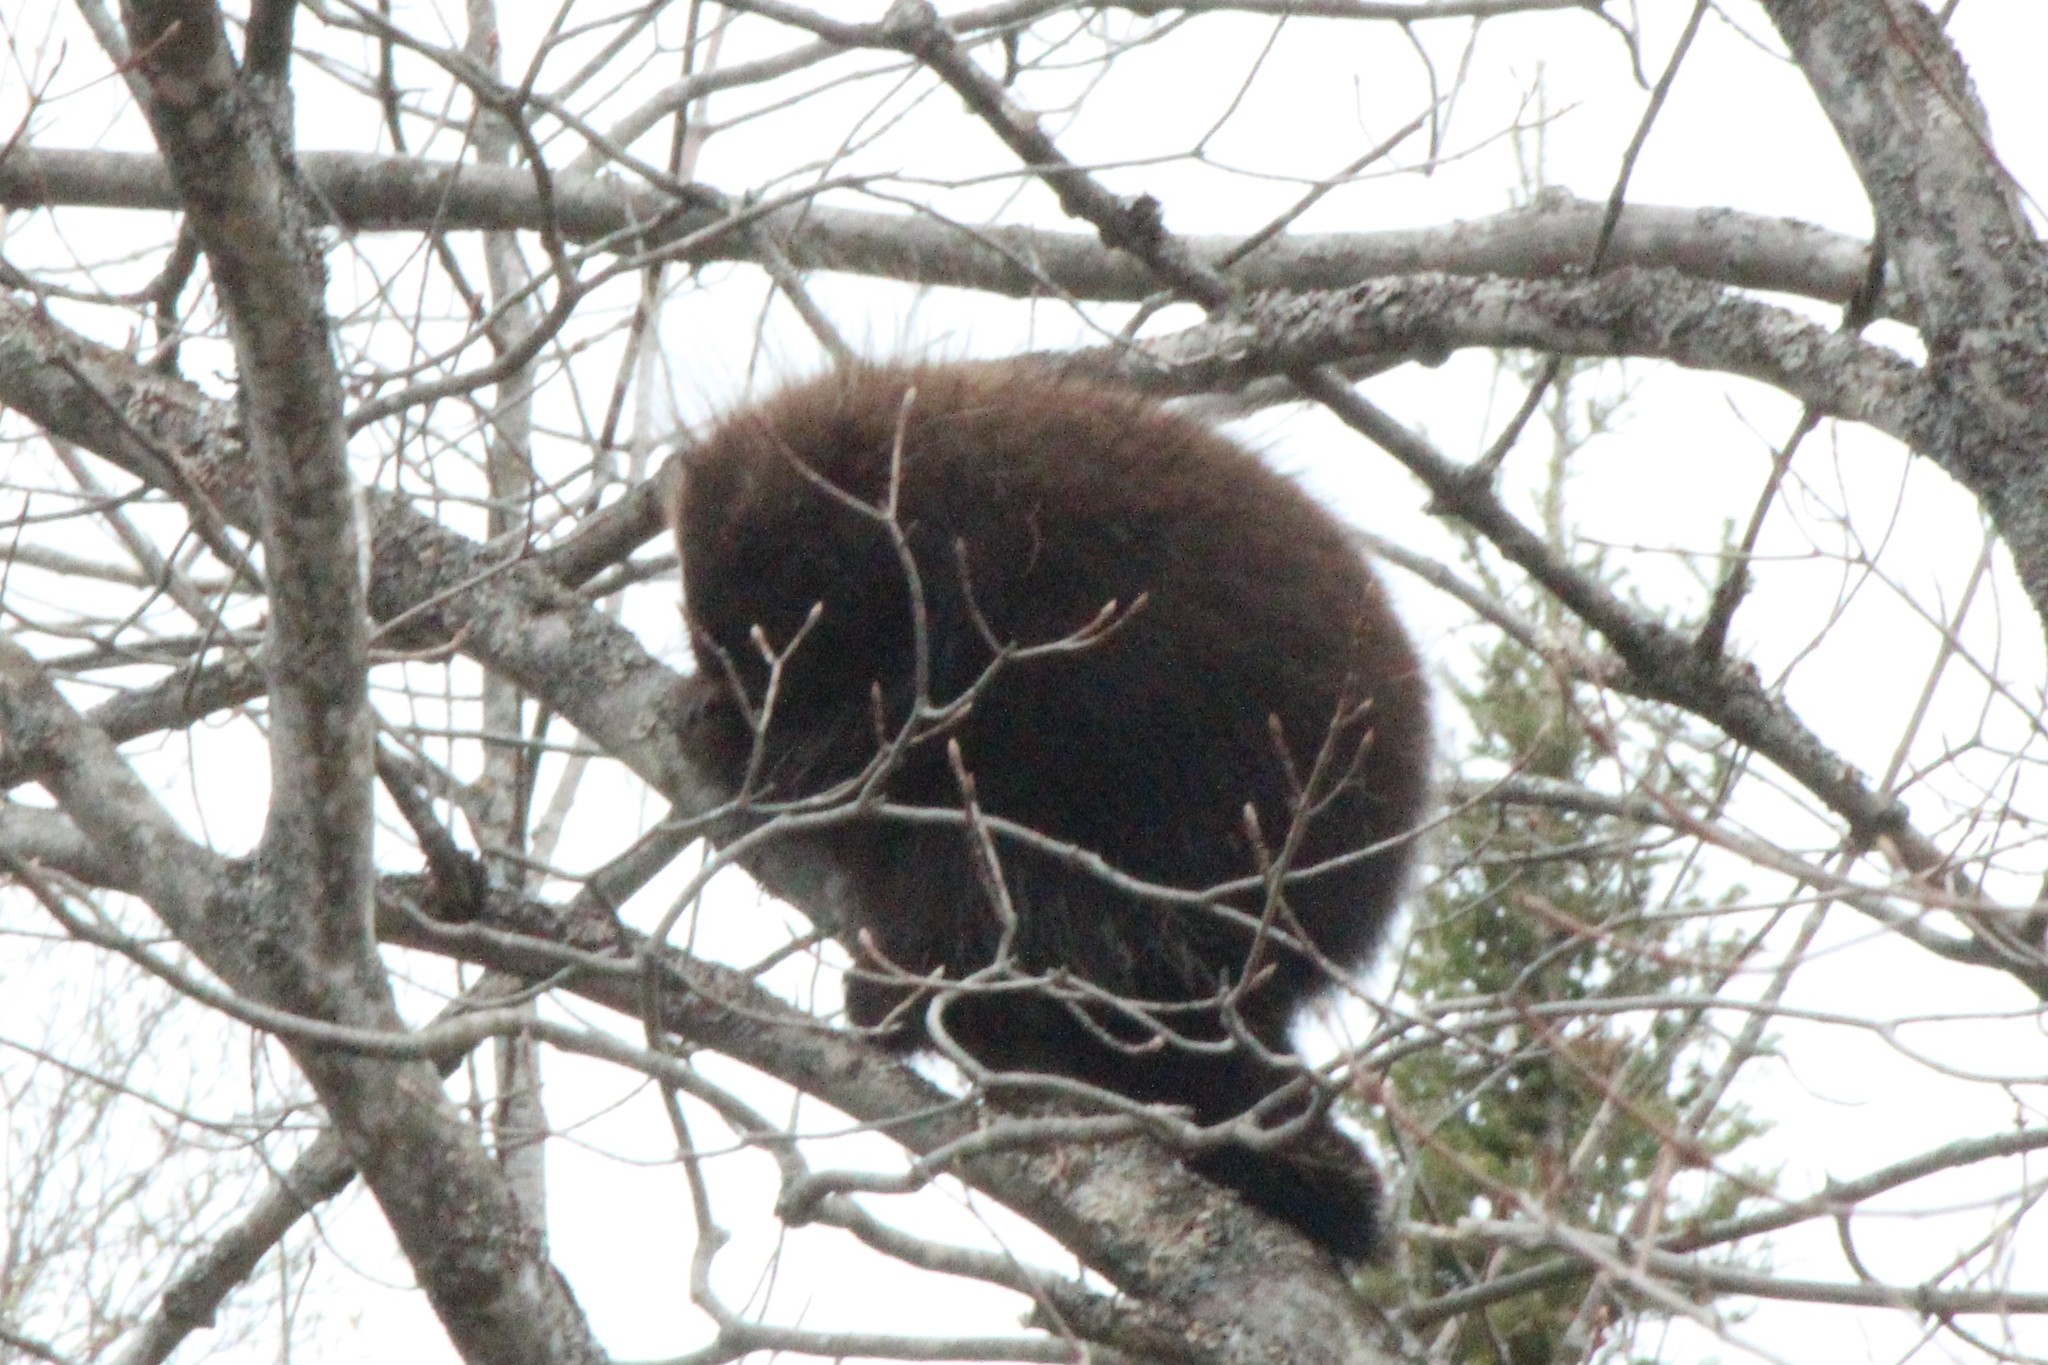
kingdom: Animalia
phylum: Chordata
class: Mammalia
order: Rodentia
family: Erethizontidae
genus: Erethizon
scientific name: Erethizon dorsatus
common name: North american porcupine
